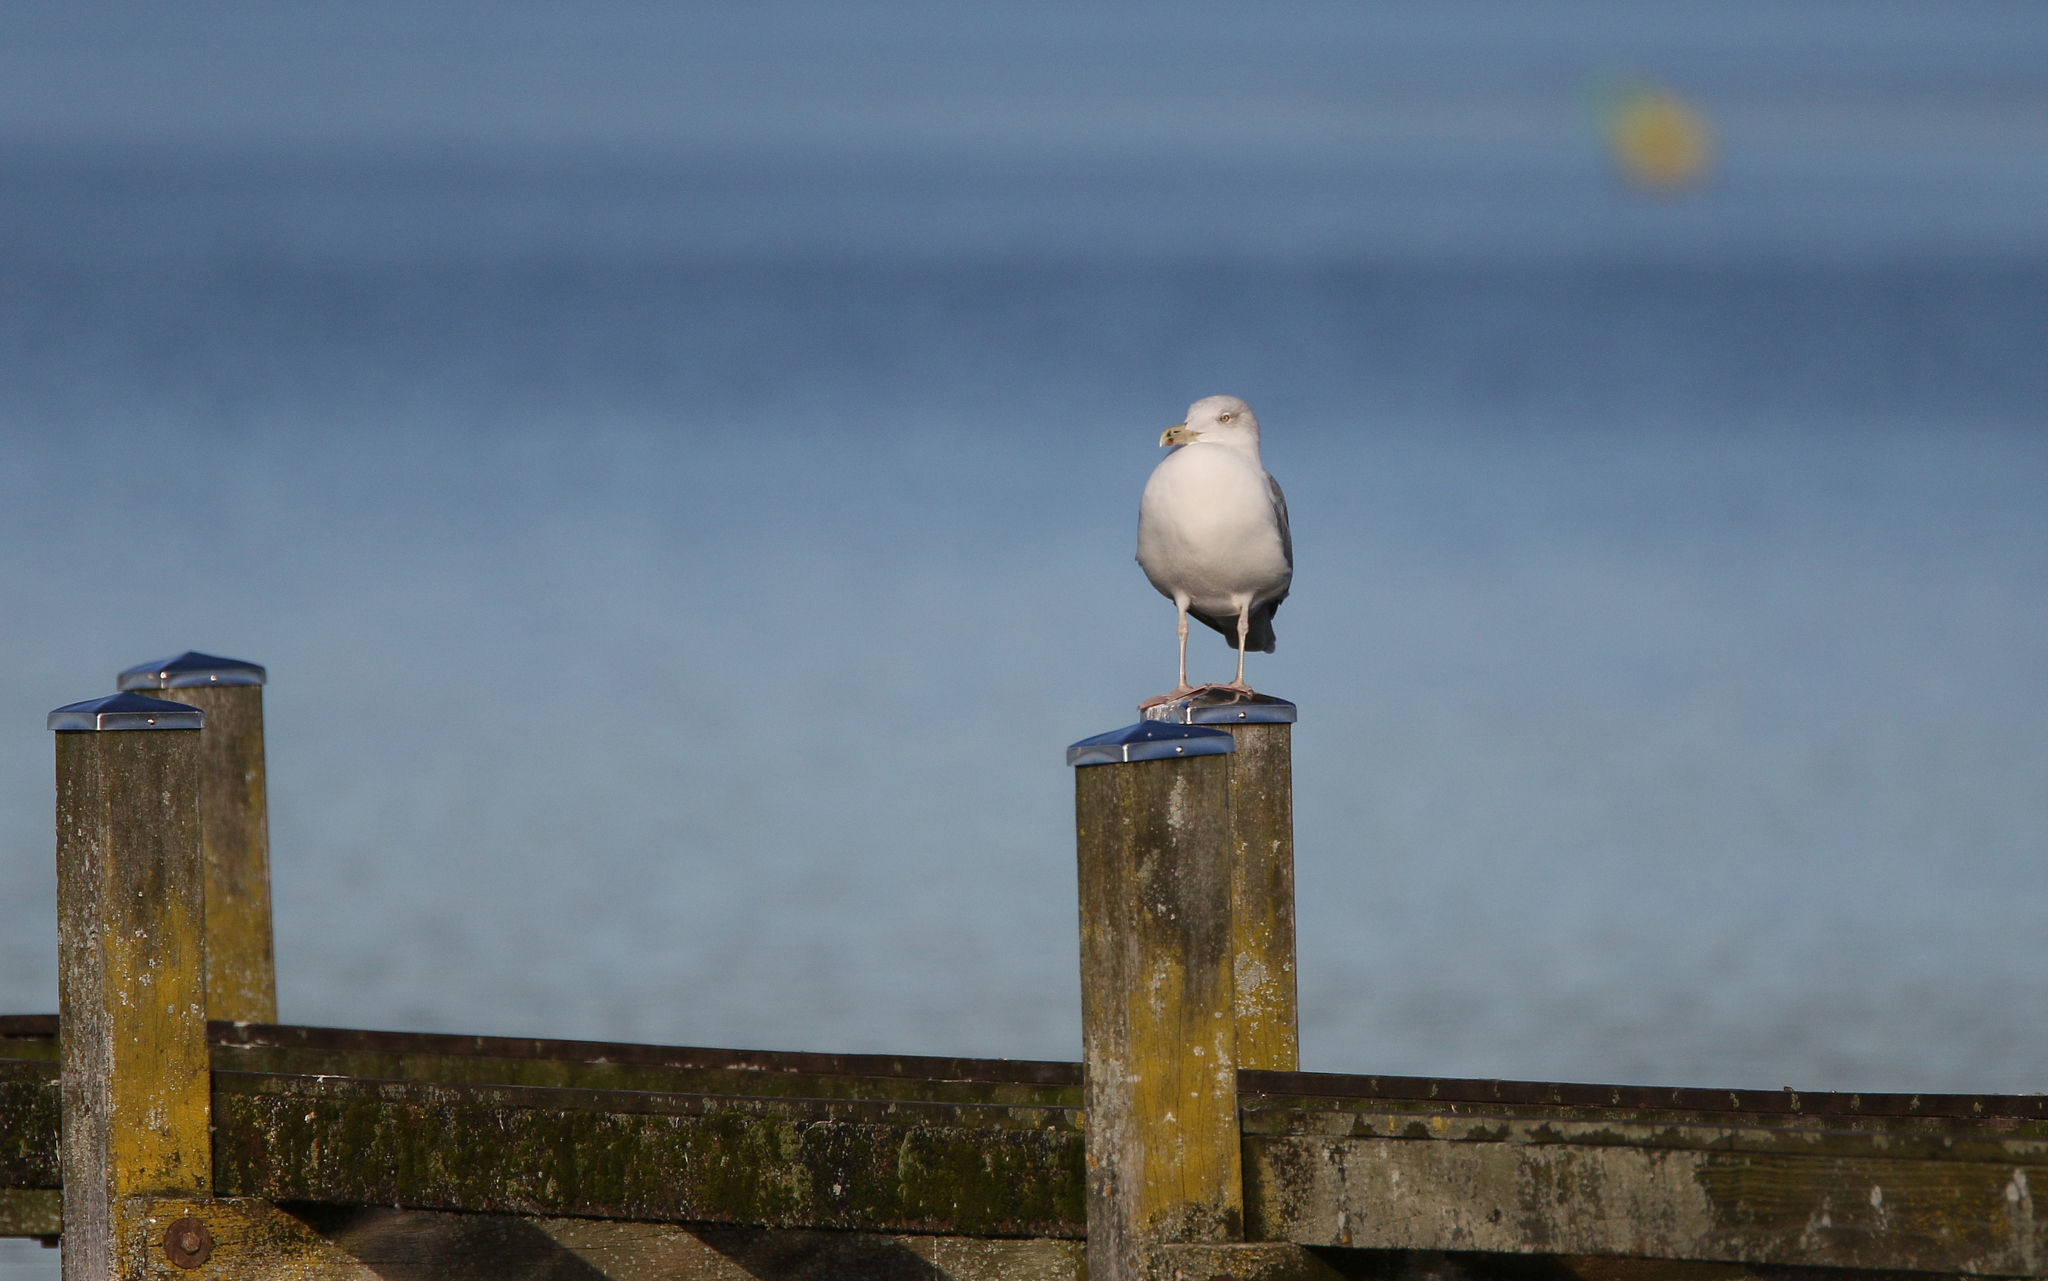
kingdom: Animalia
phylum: Chordata
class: Aves
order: Charadriiformes
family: Laridae
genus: Larus
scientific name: Larus cachinnans
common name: Caspian gull
